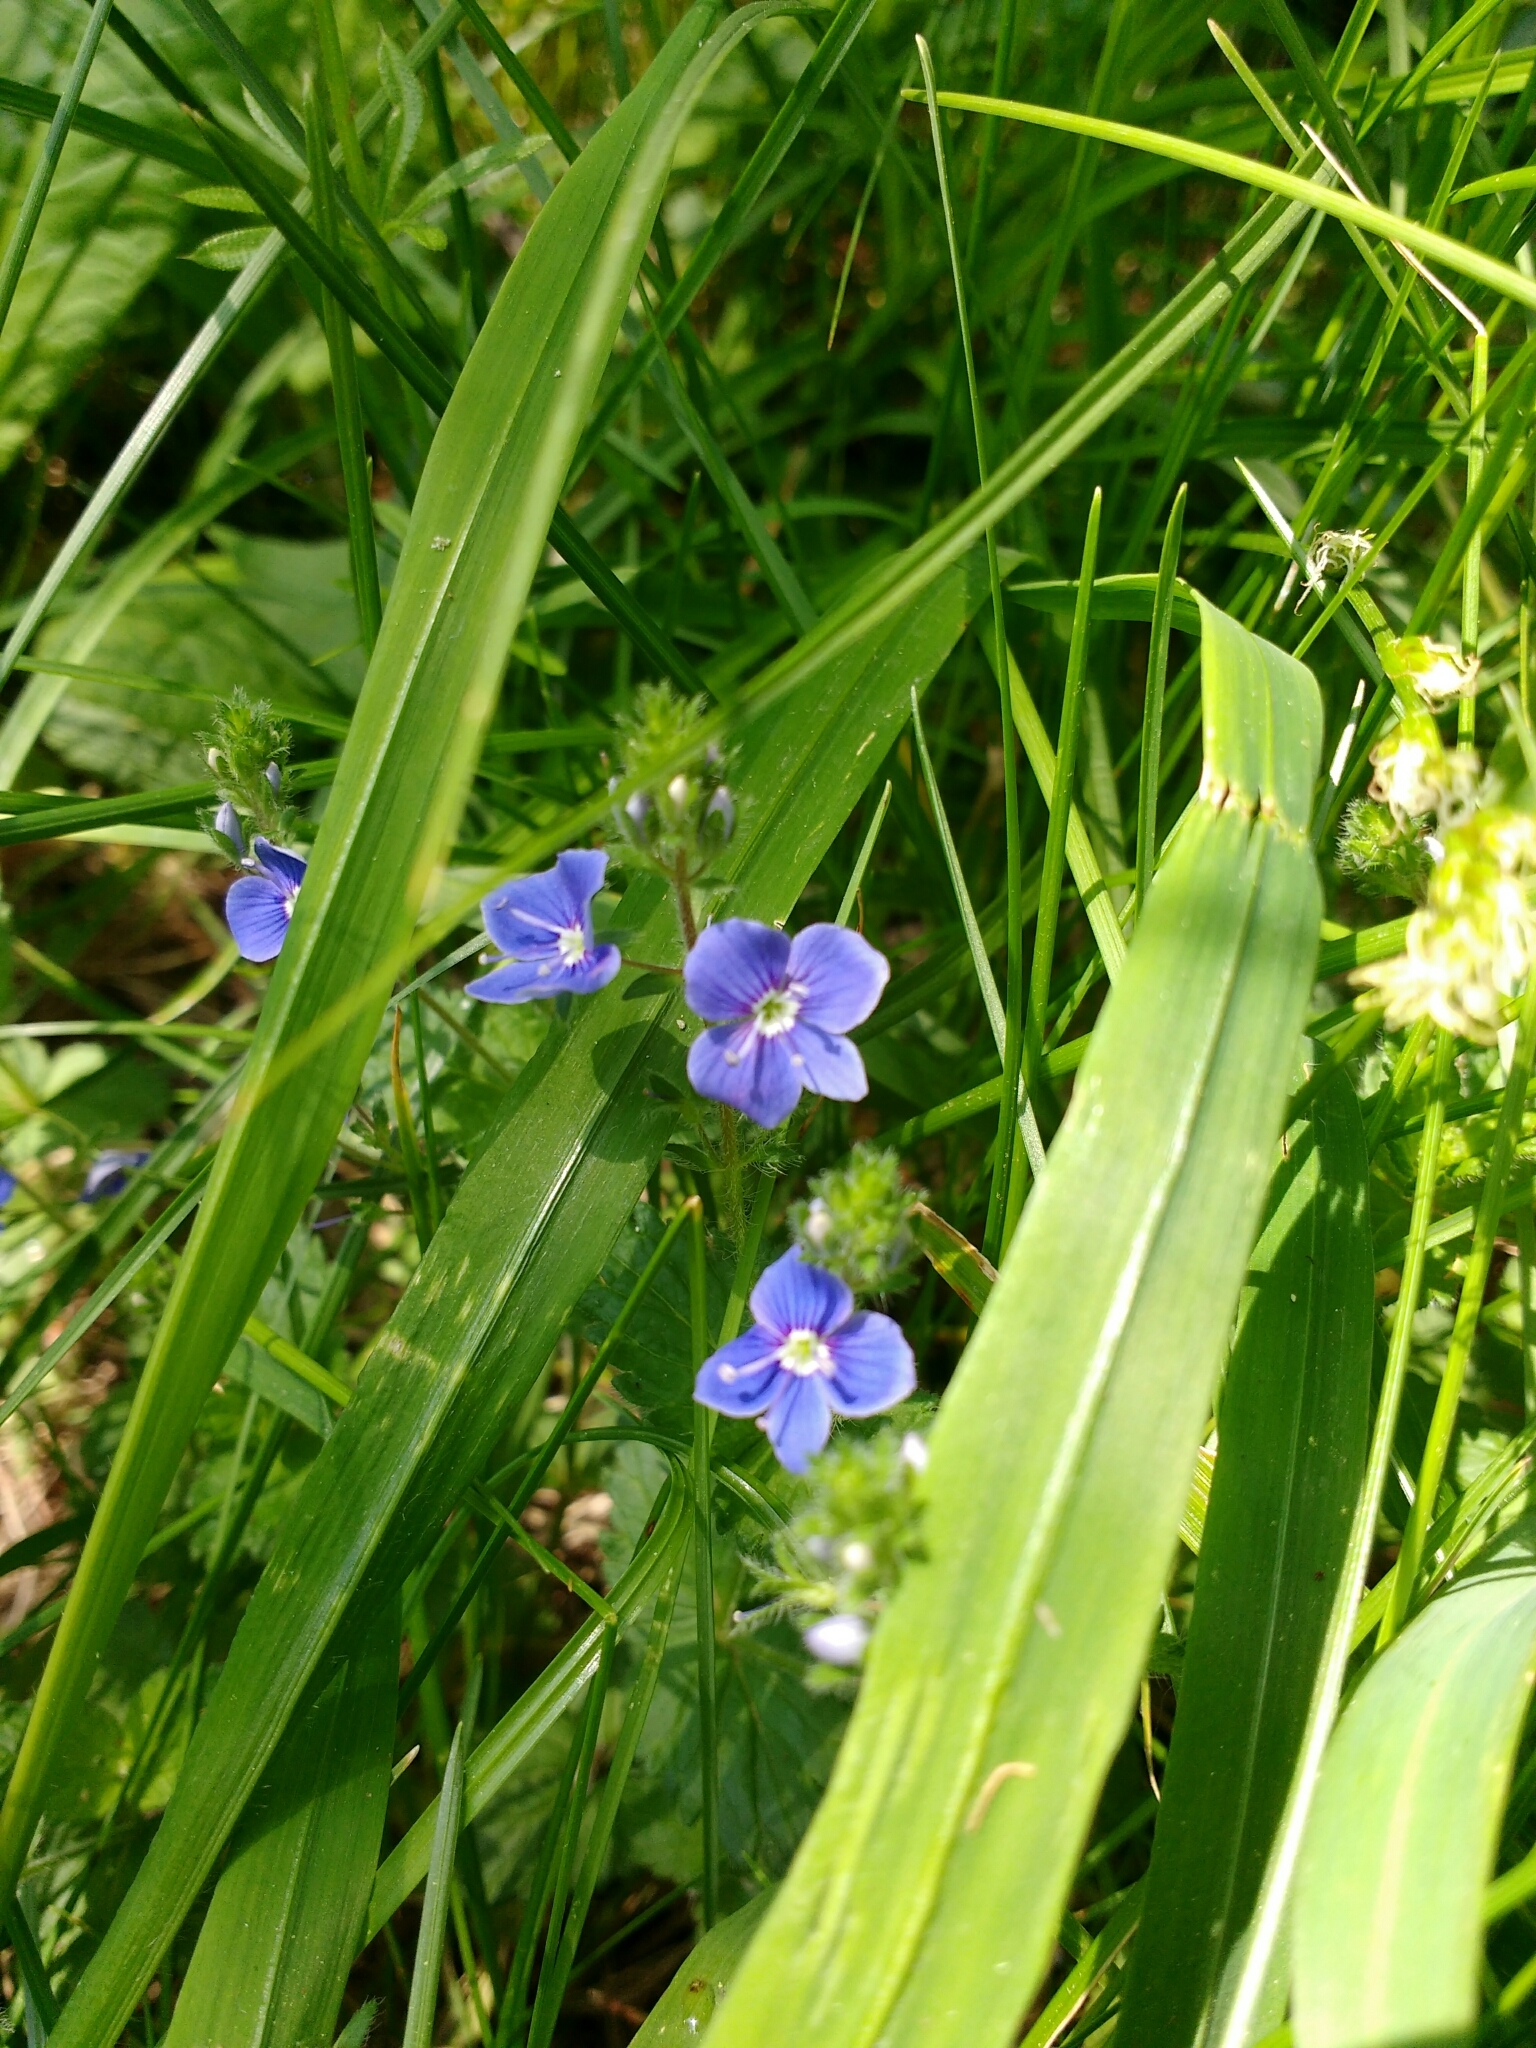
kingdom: Plantae
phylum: Tracheophyta
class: Magnoliopsida
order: Lamiales
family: Plantaginaceae
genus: Veronica
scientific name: Veronica chamaedrys
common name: Germander speedwell
